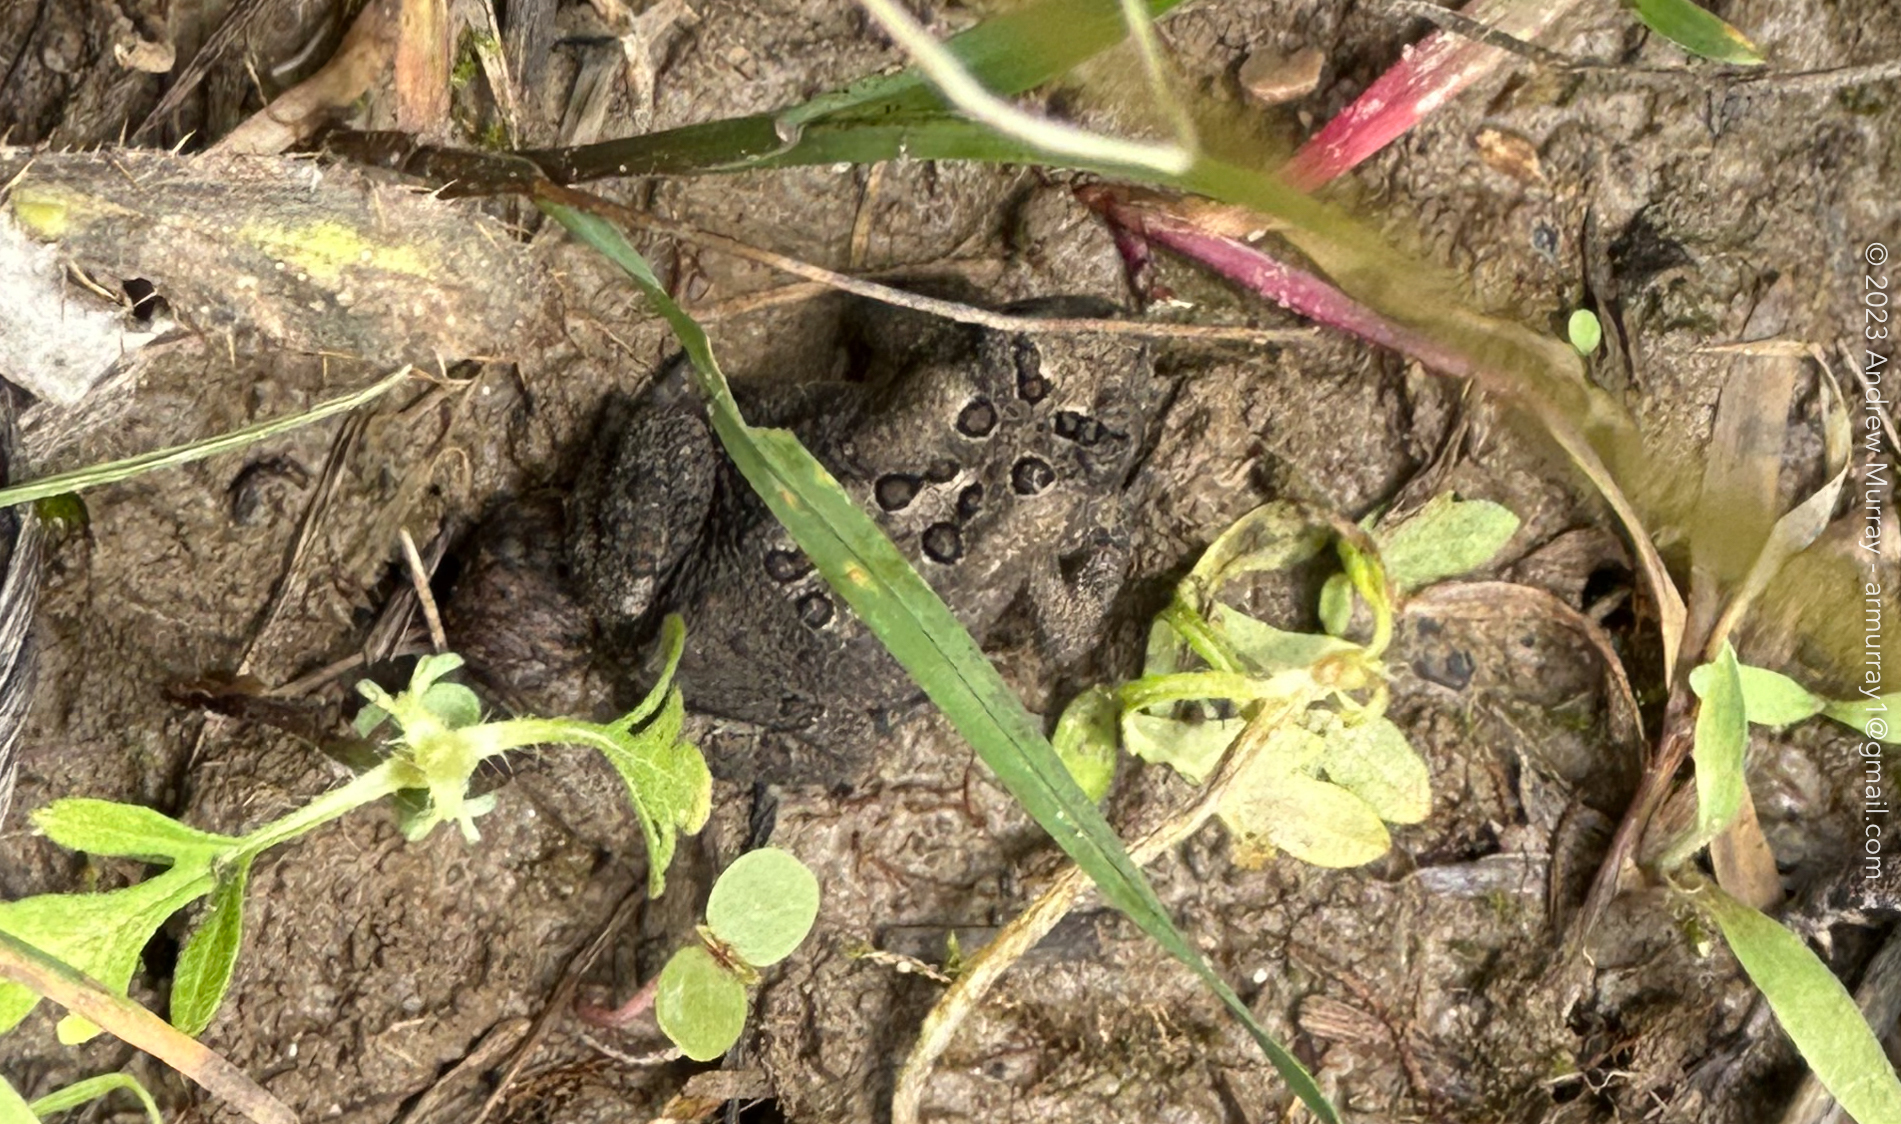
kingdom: Animalia
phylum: Chordata
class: Amphibia
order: Anura
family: Bufonidae
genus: Anaxyrus
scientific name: Anaxyrus americanus
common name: American toad
